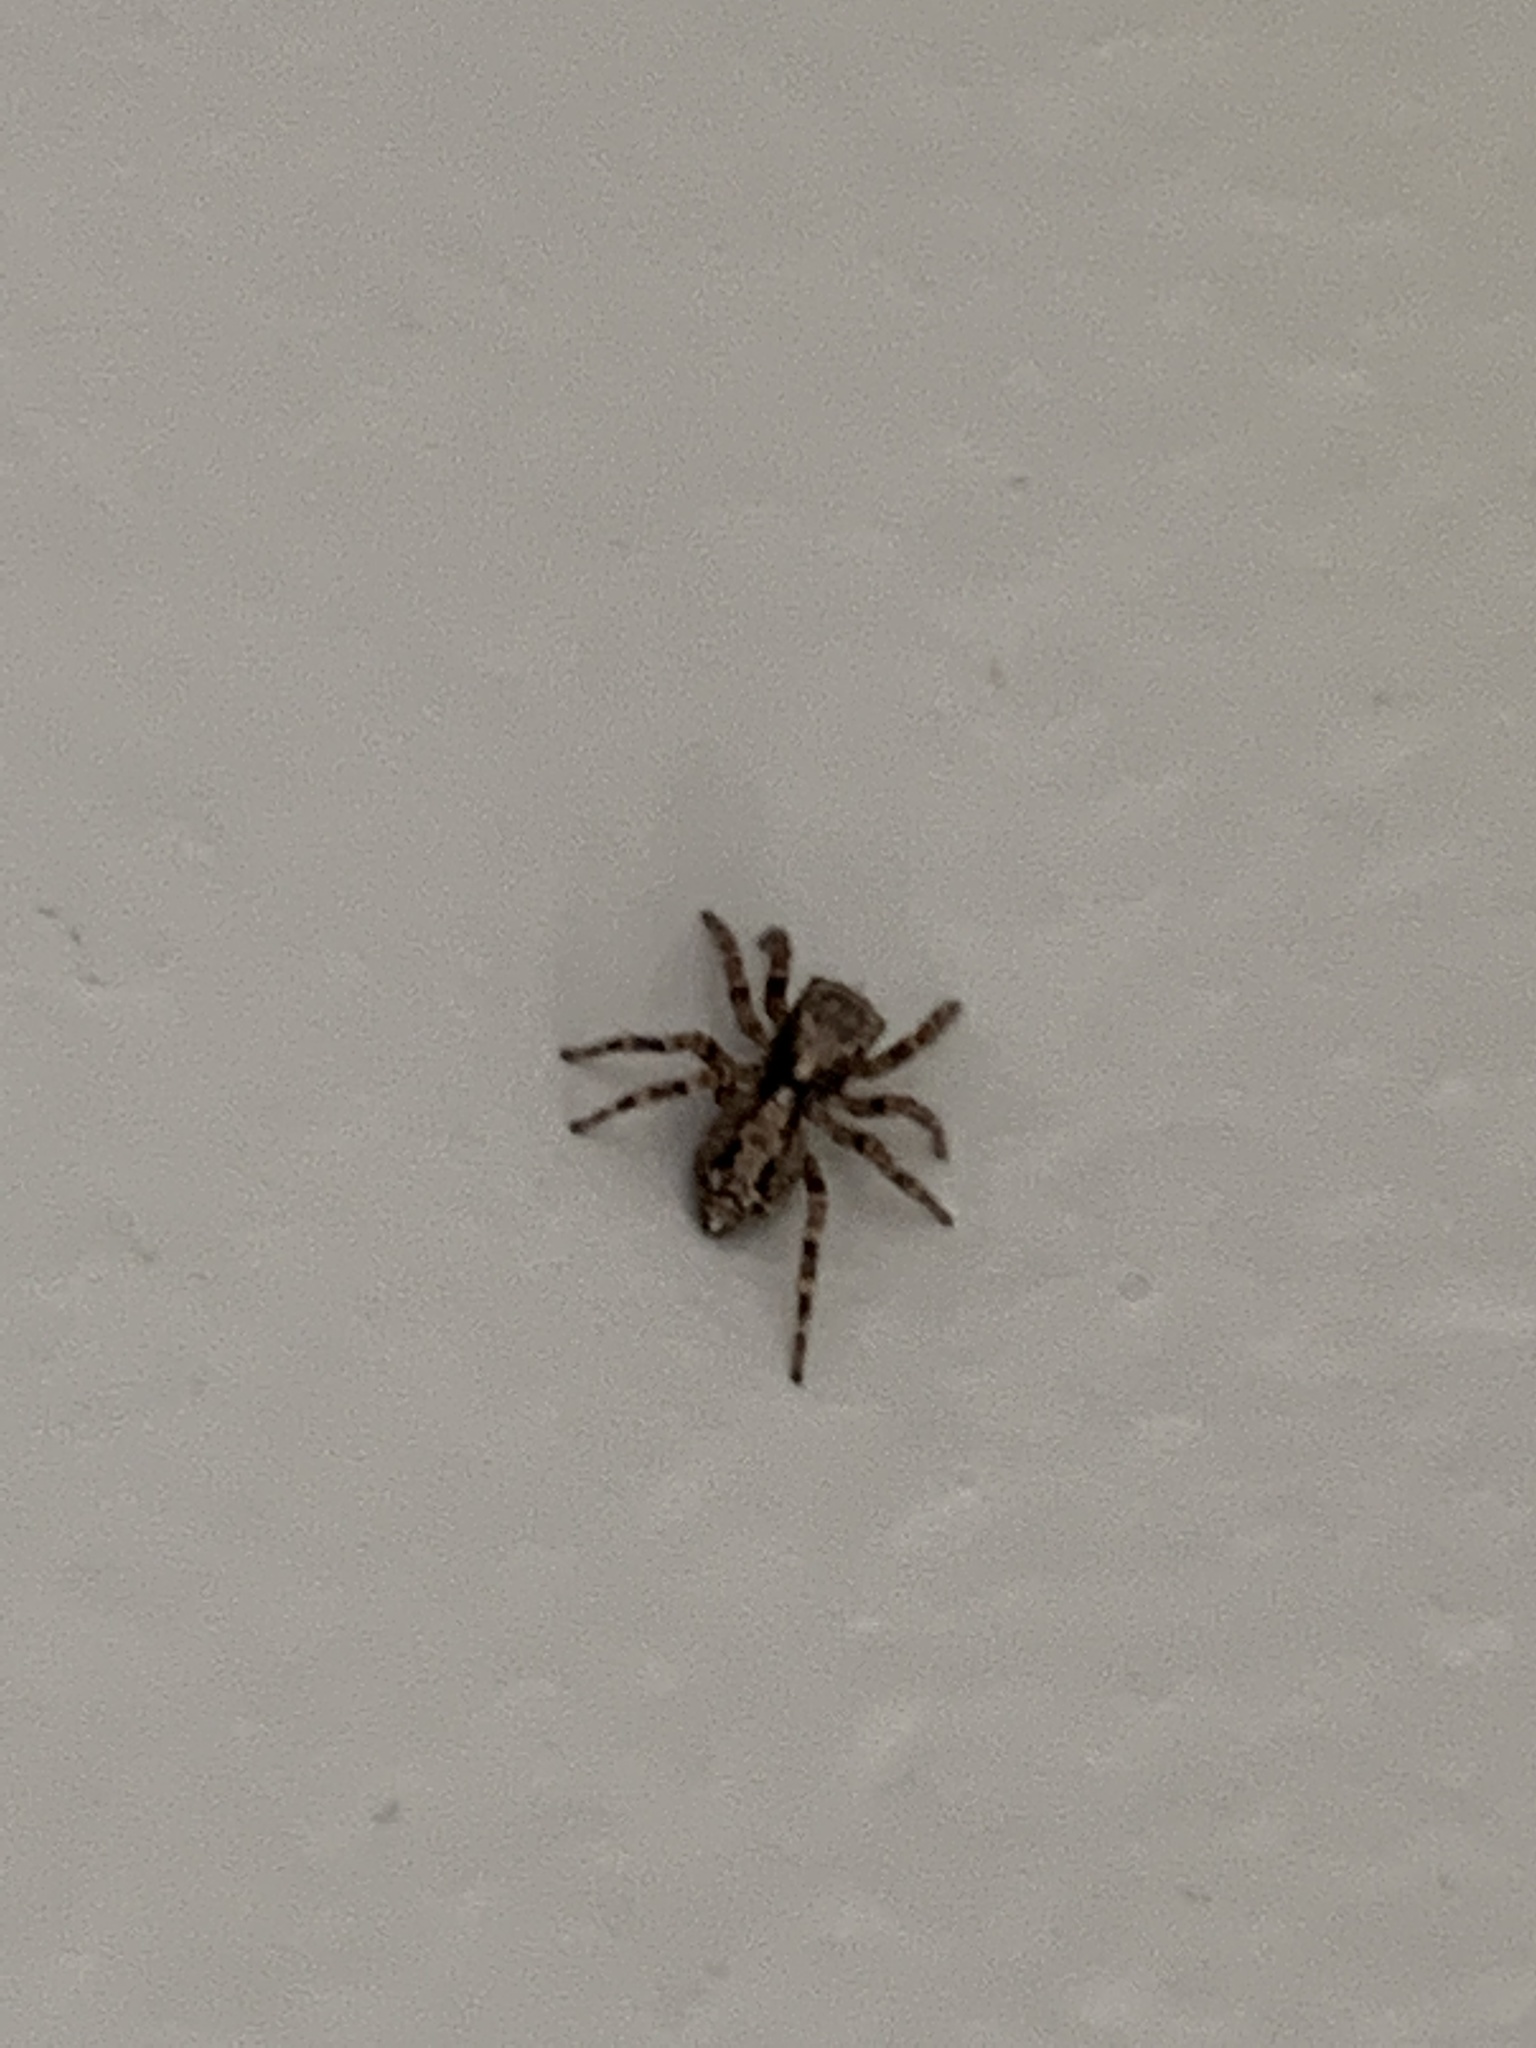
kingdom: Animalia
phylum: Arthropoda
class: Arachnida
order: Araneae
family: Salticidae
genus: Pseudeuophrys
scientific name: Pseudeuophrys lanigera
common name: Jumping spider
